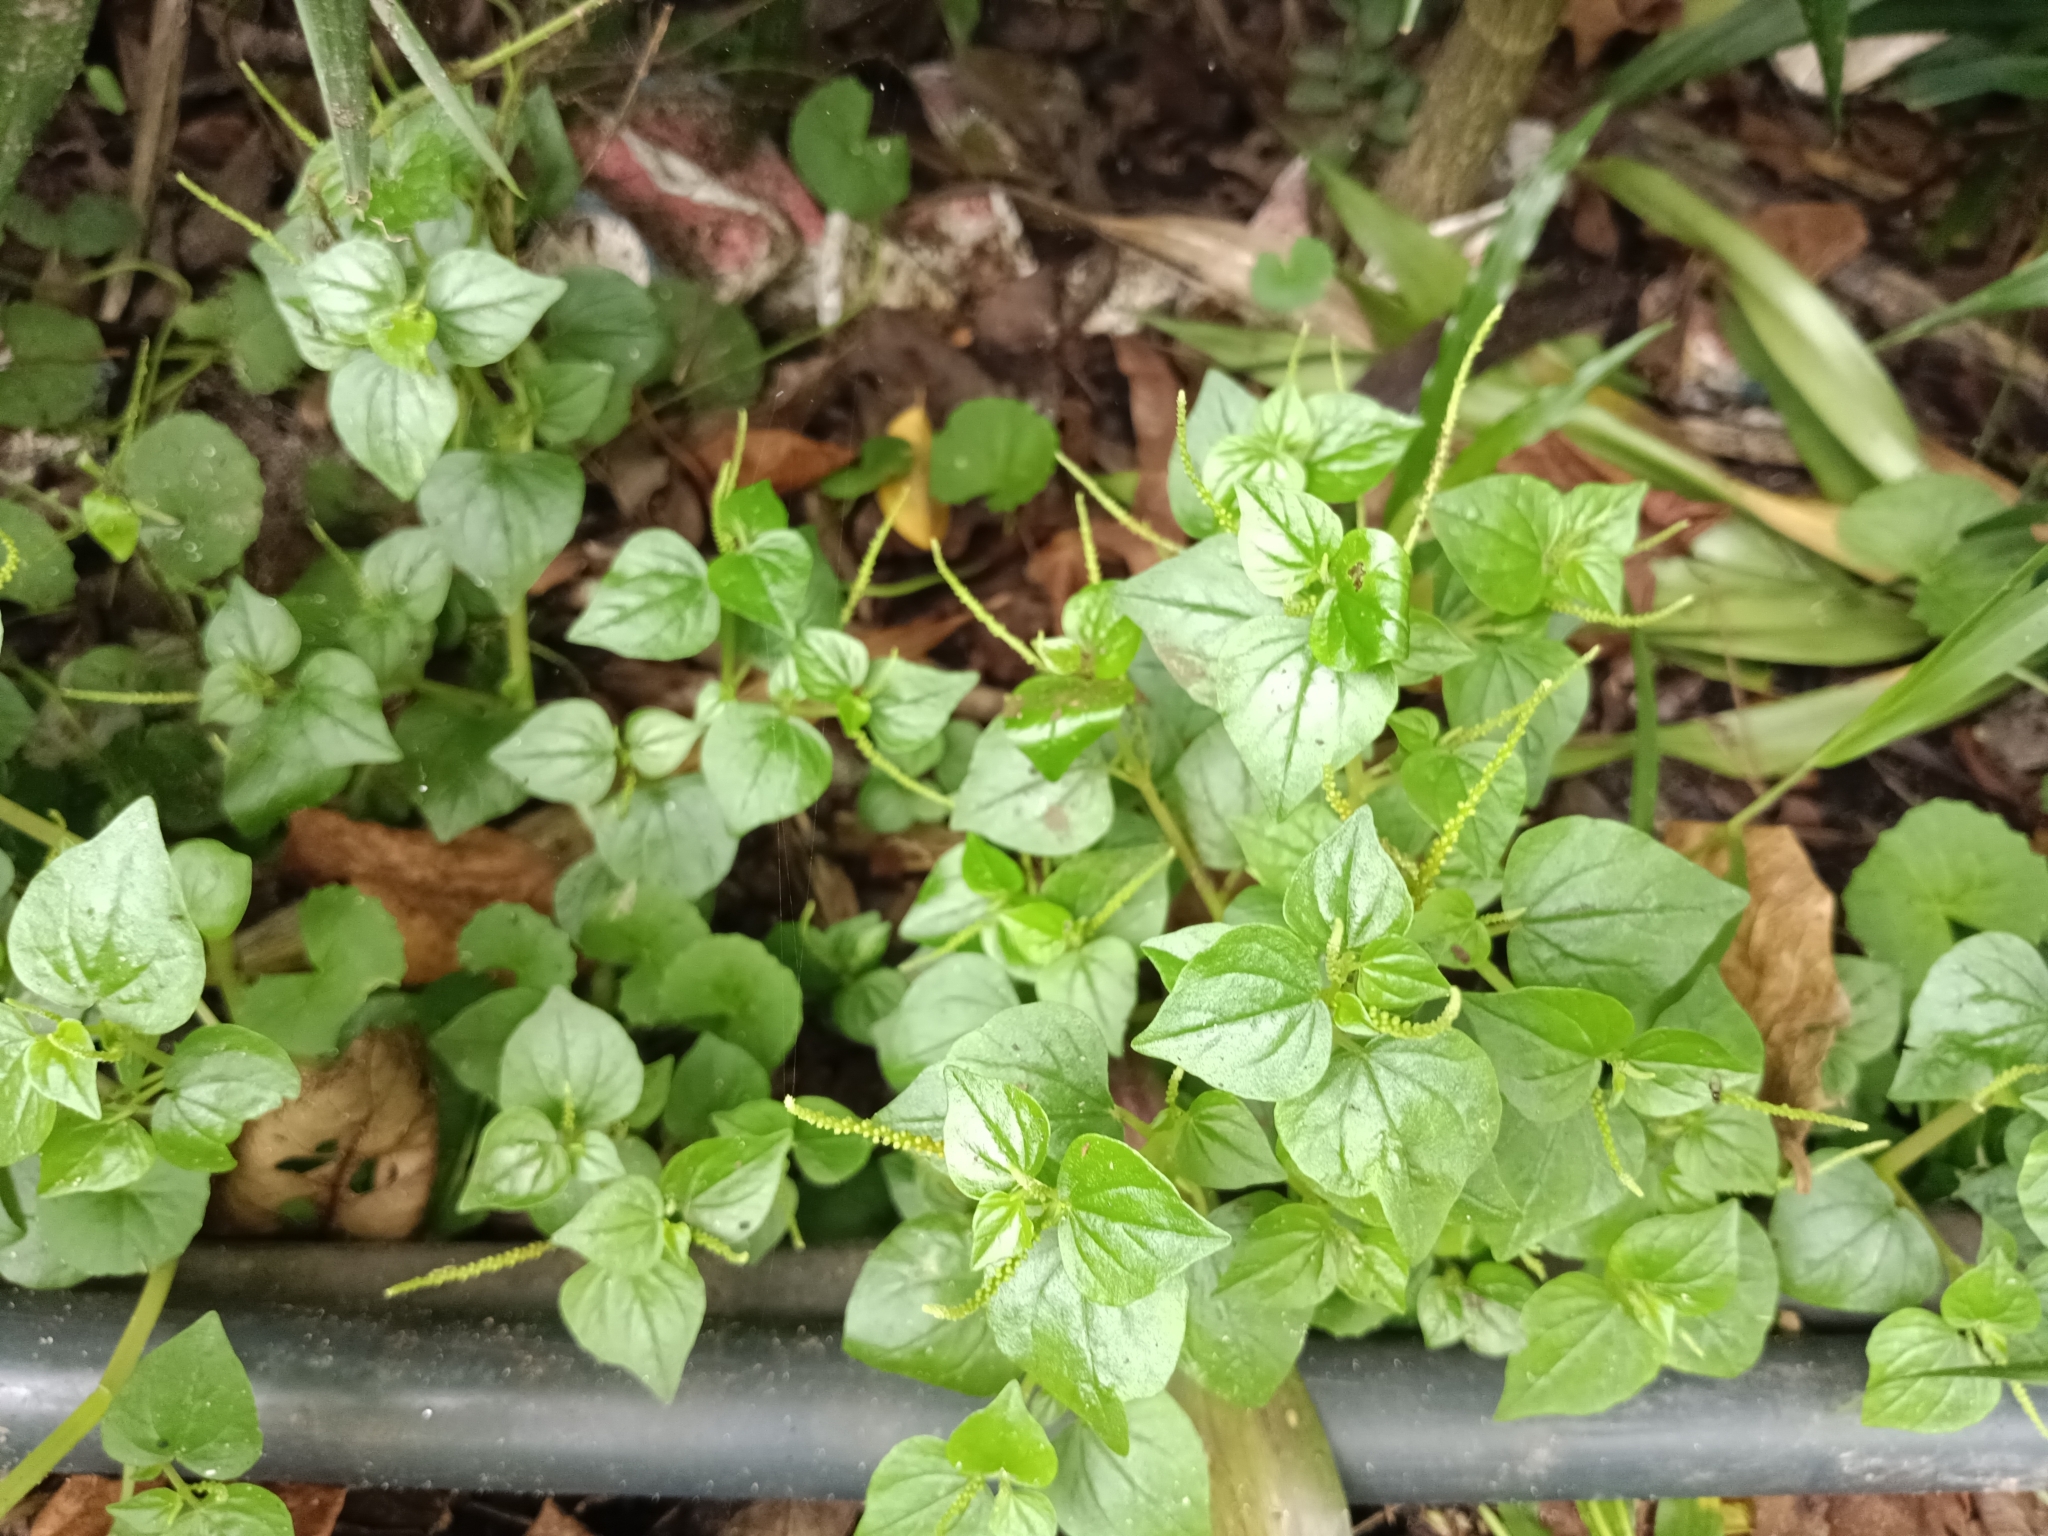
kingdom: Plantae
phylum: Tracheophyta
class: Magnoliopsida
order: Piperales
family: Piperaceae
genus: Peperomia
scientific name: Peperomia pellucida
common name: Man to man
